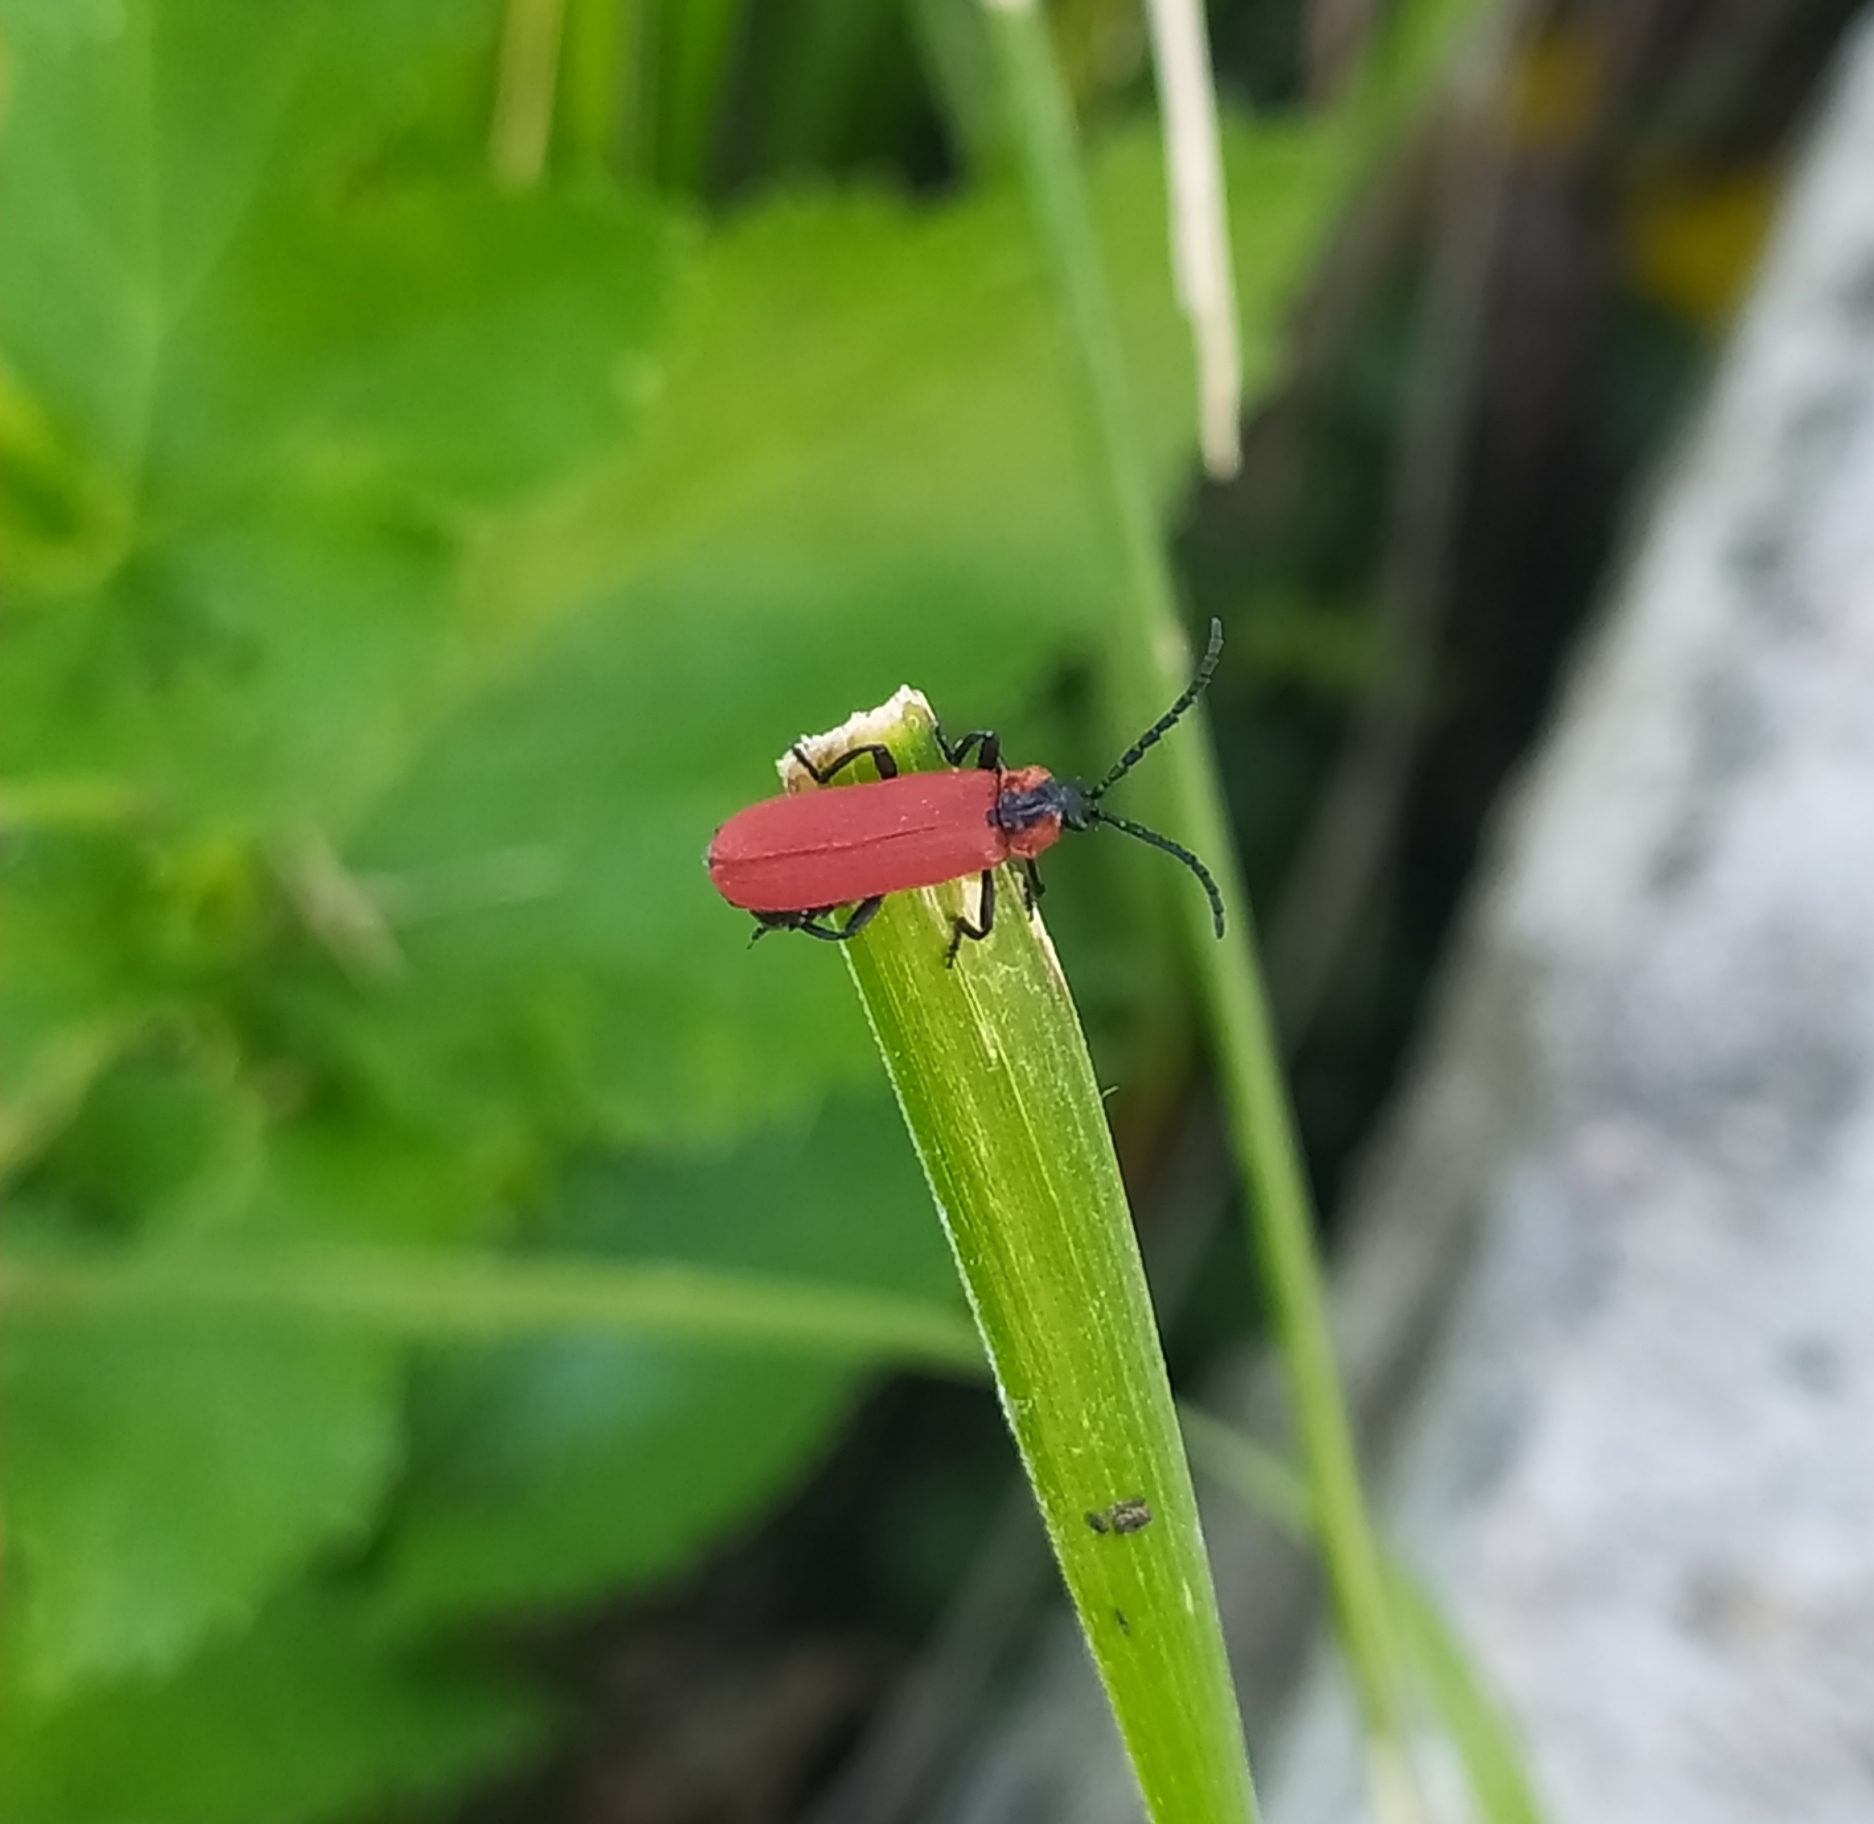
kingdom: Animalia
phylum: Arthropoda
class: Insecta
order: Coleoptera
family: Lycidae
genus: Lygistopterus
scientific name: Lygistopterus sanguineus
